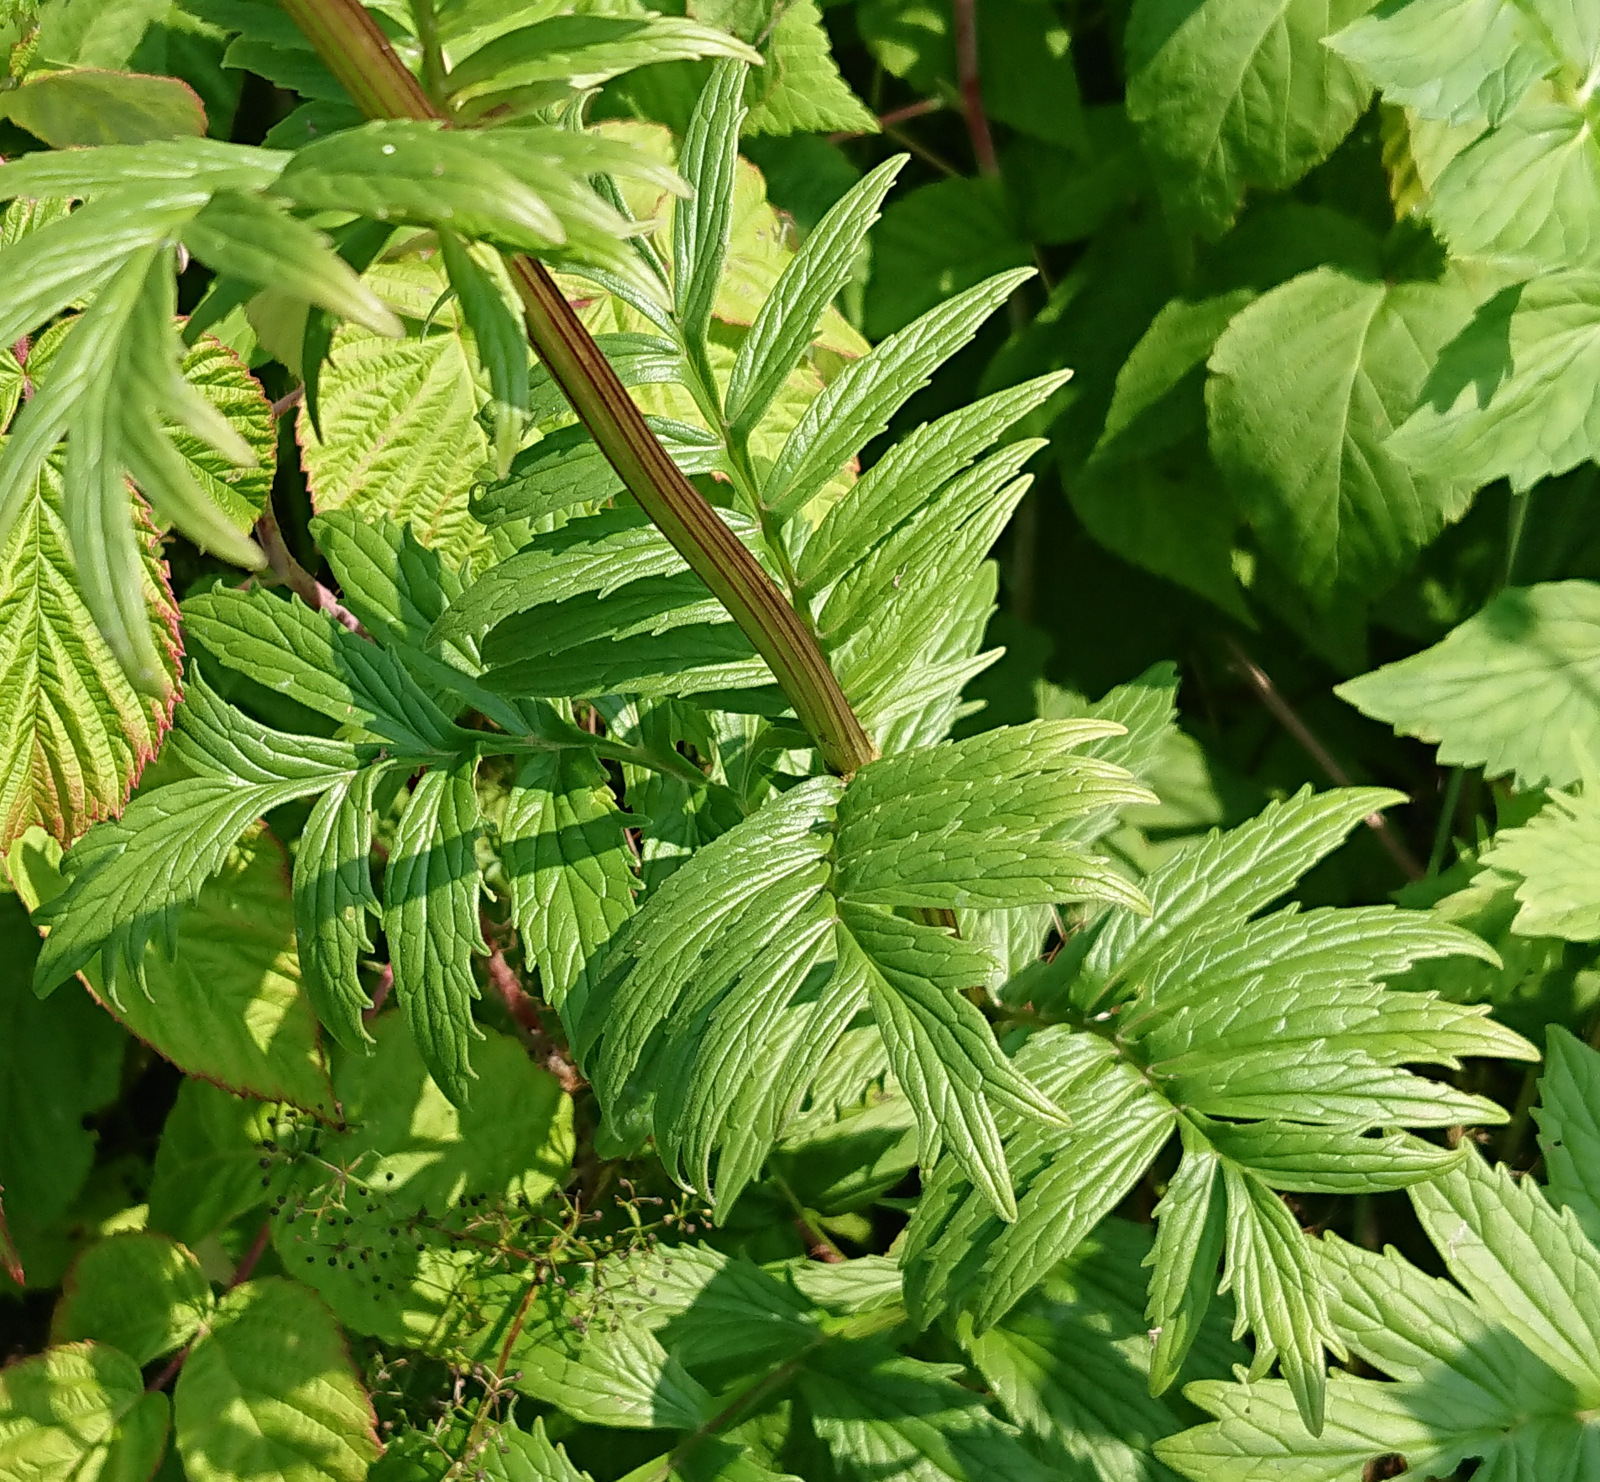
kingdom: Plantae
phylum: Tracheophyta
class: Magnoliopsida
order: Dipsacales
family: Caprifoliaceae
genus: Valeriana
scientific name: Valeriana officinalis
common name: Common valerian
